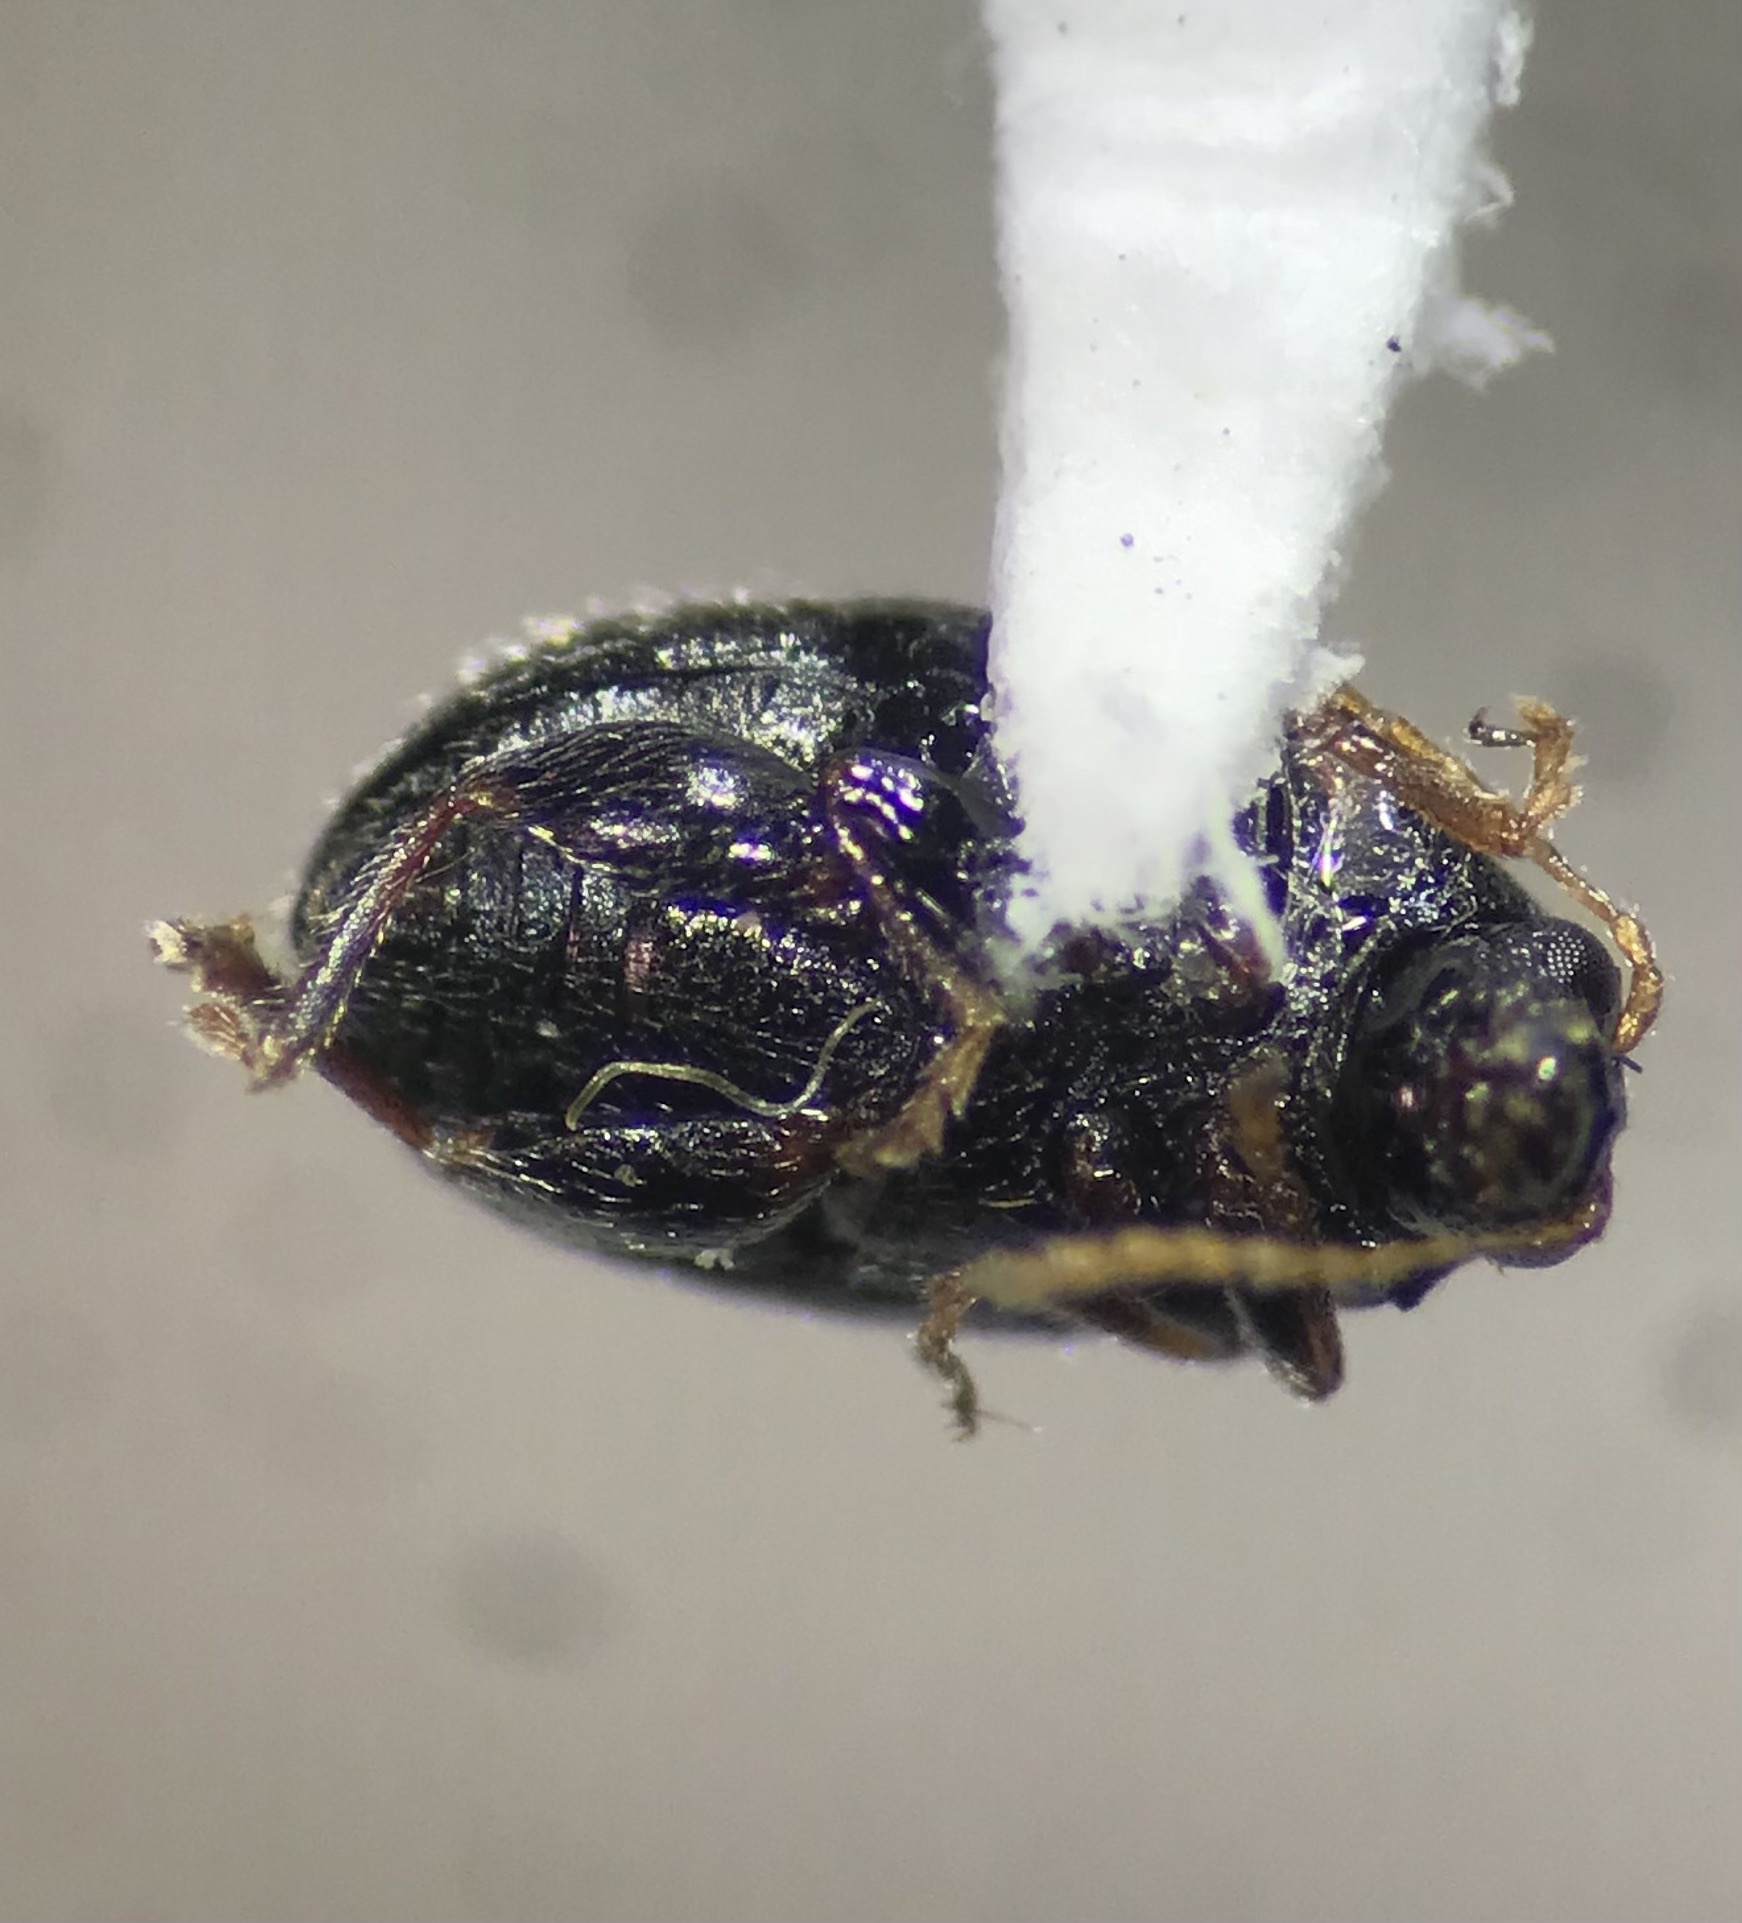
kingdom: Animalia
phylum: Arthropoda
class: Insecta
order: Coleoptera
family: Chrysomelidae
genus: Epitrix
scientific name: Epitrix fuscula
